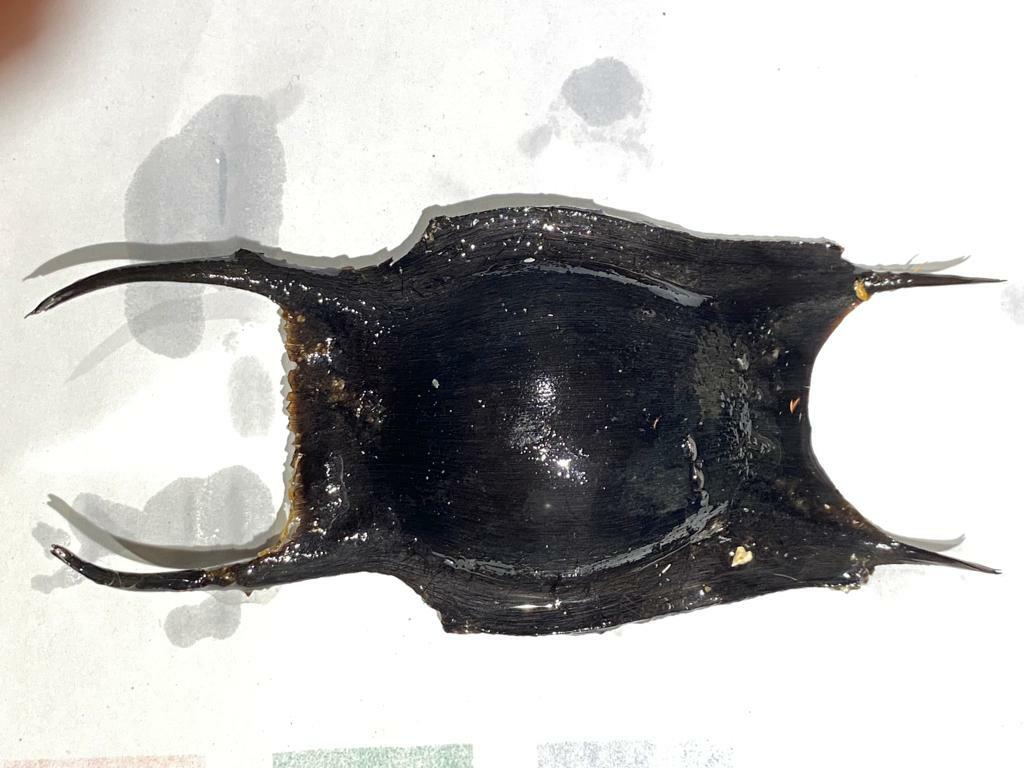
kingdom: Animalia
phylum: Chordata
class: Elasmobranchii
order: Rajiformes
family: Rajidae
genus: Raja
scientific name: Raja clavata
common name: Thornback ray
